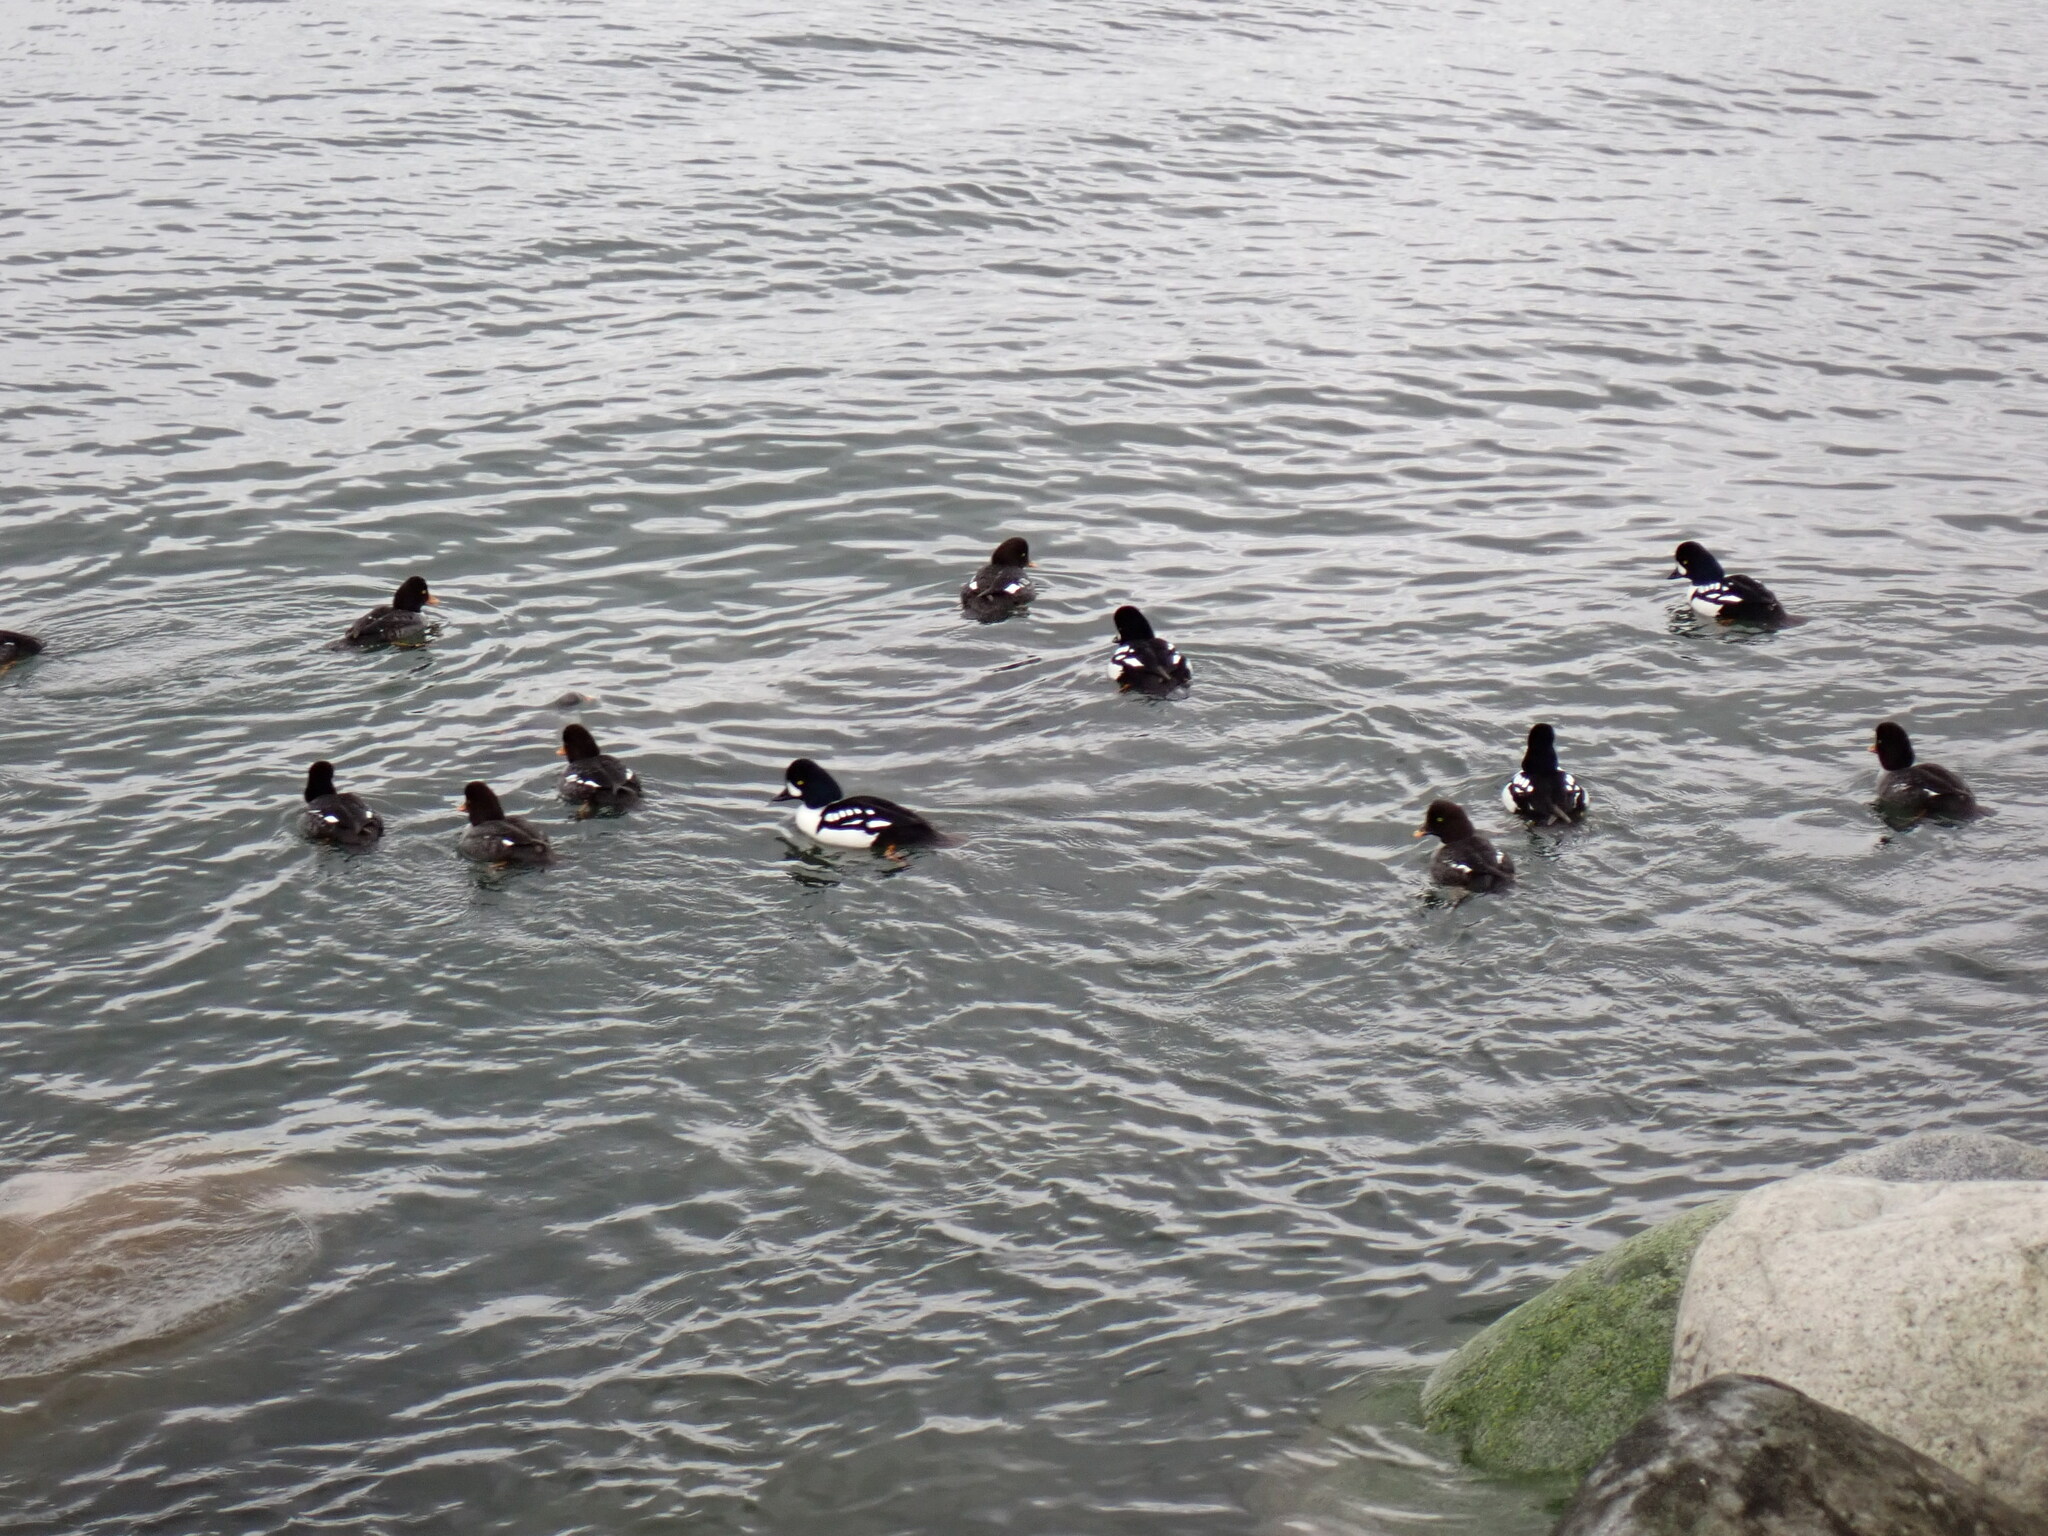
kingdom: Animalia
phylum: Chordata
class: Aves
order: Anseriformes
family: Anatidae
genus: Bucephala
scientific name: Bucephala islandica
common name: Barrow's goldeneye
